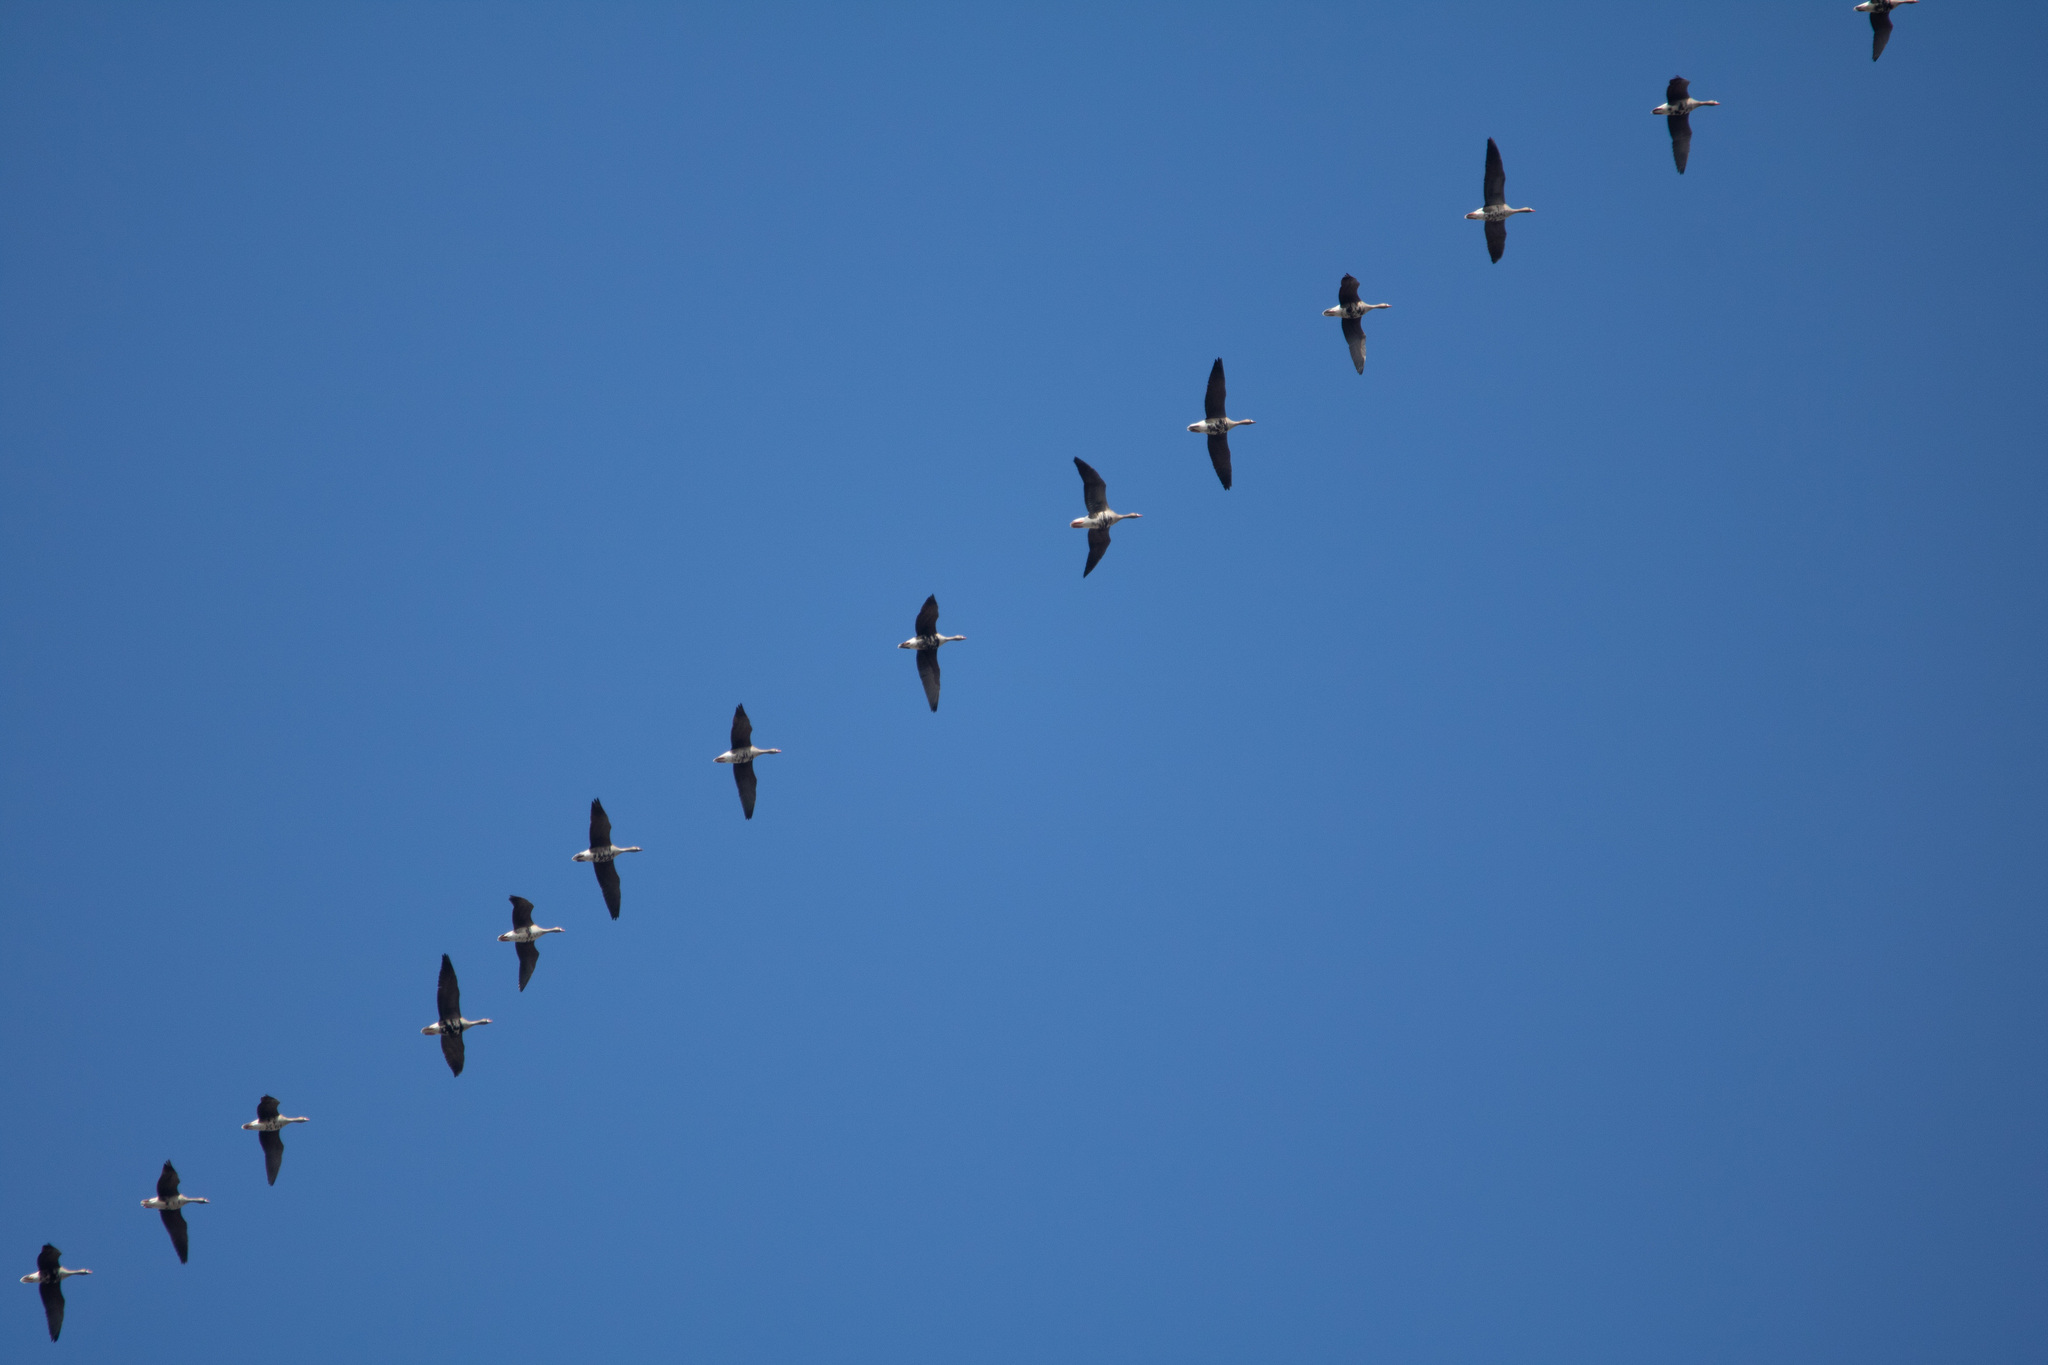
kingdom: Animalia
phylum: Chordata
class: Aves
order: Anseriformes
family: Anatidae
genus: Anser
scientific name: Anser albifrons
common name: Greater white-fronted goose
